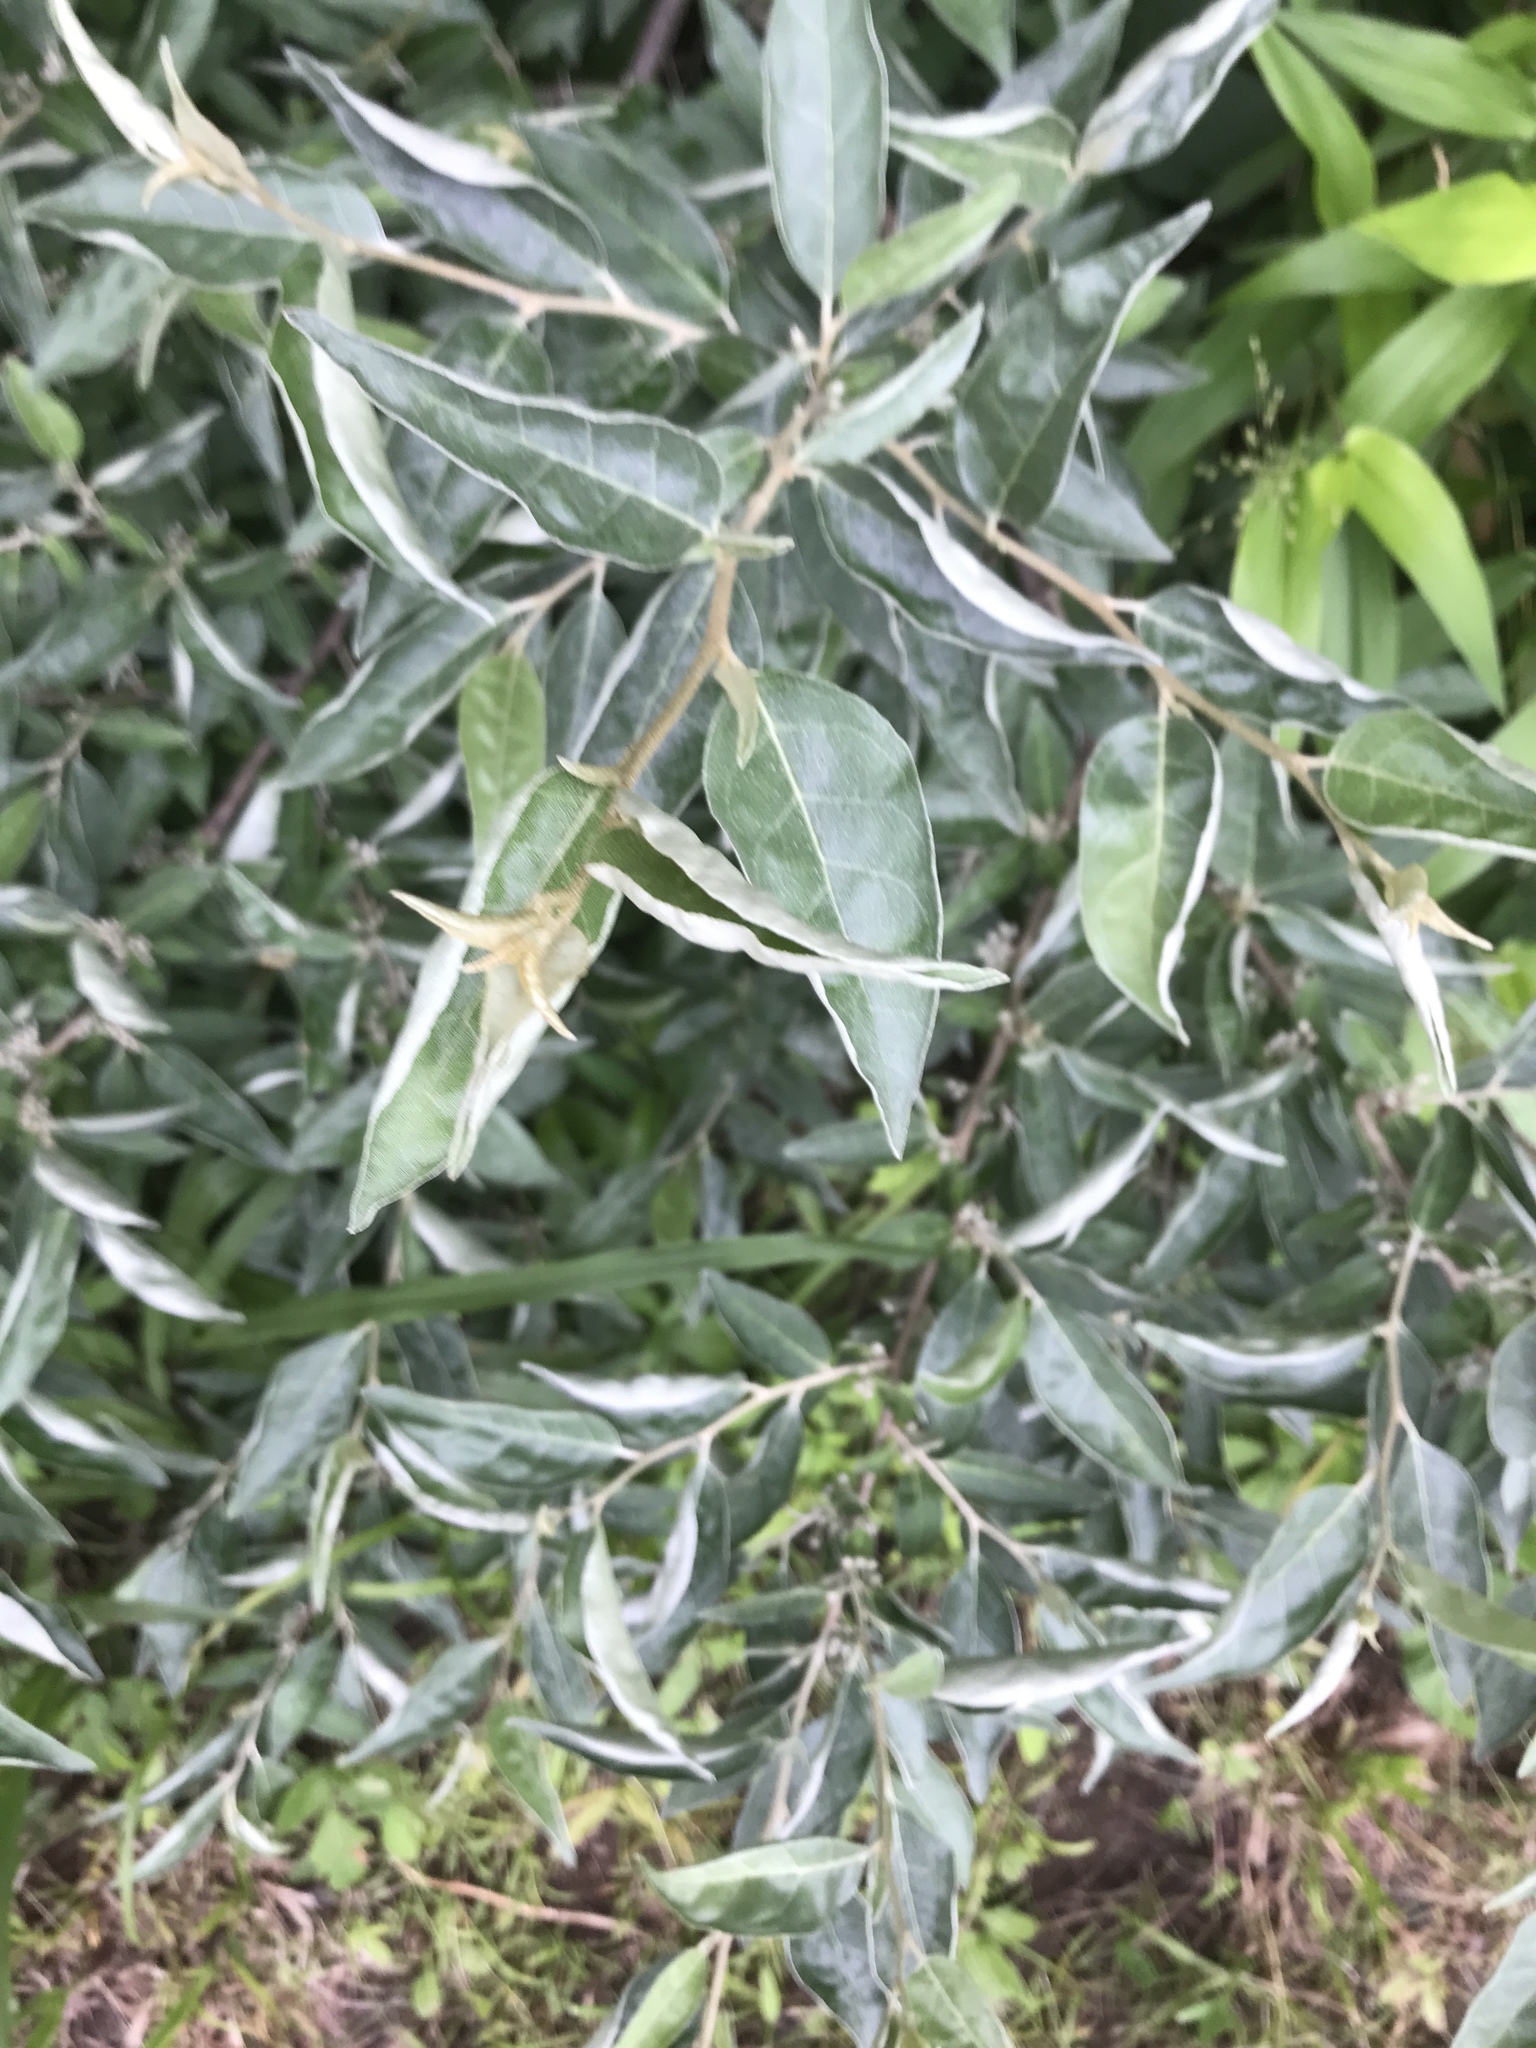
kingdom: Plantae
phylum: Tracheophyta
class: Magnoliopsida
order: Rosales
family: Elaeagnaceae
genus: Elaeagnus
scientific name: Elaeagnus umbellata
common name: Autumn olive
